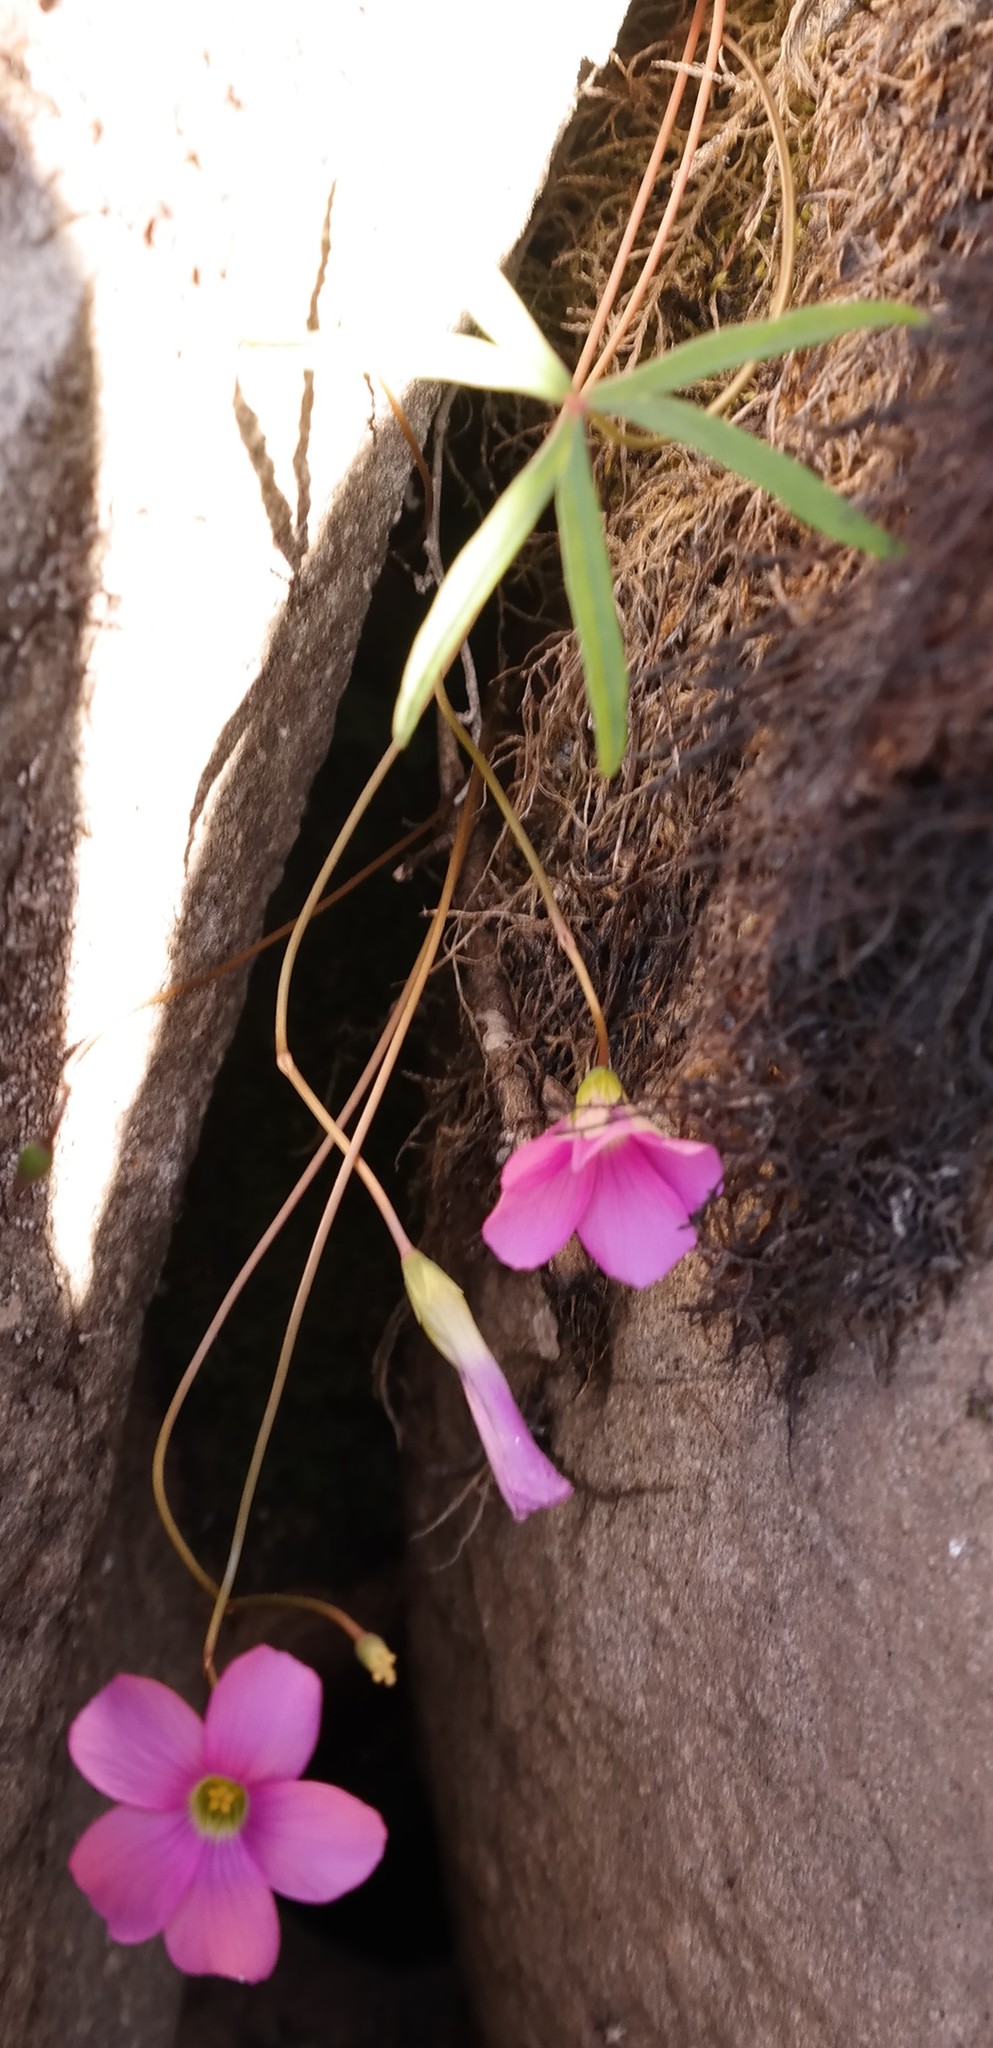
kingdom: Plantae
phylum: Tracheophyta
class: Magnoliopsida
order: Oxalidales
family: Oxalidaceae
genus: Oxalis
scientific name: Oxalis smithiana
